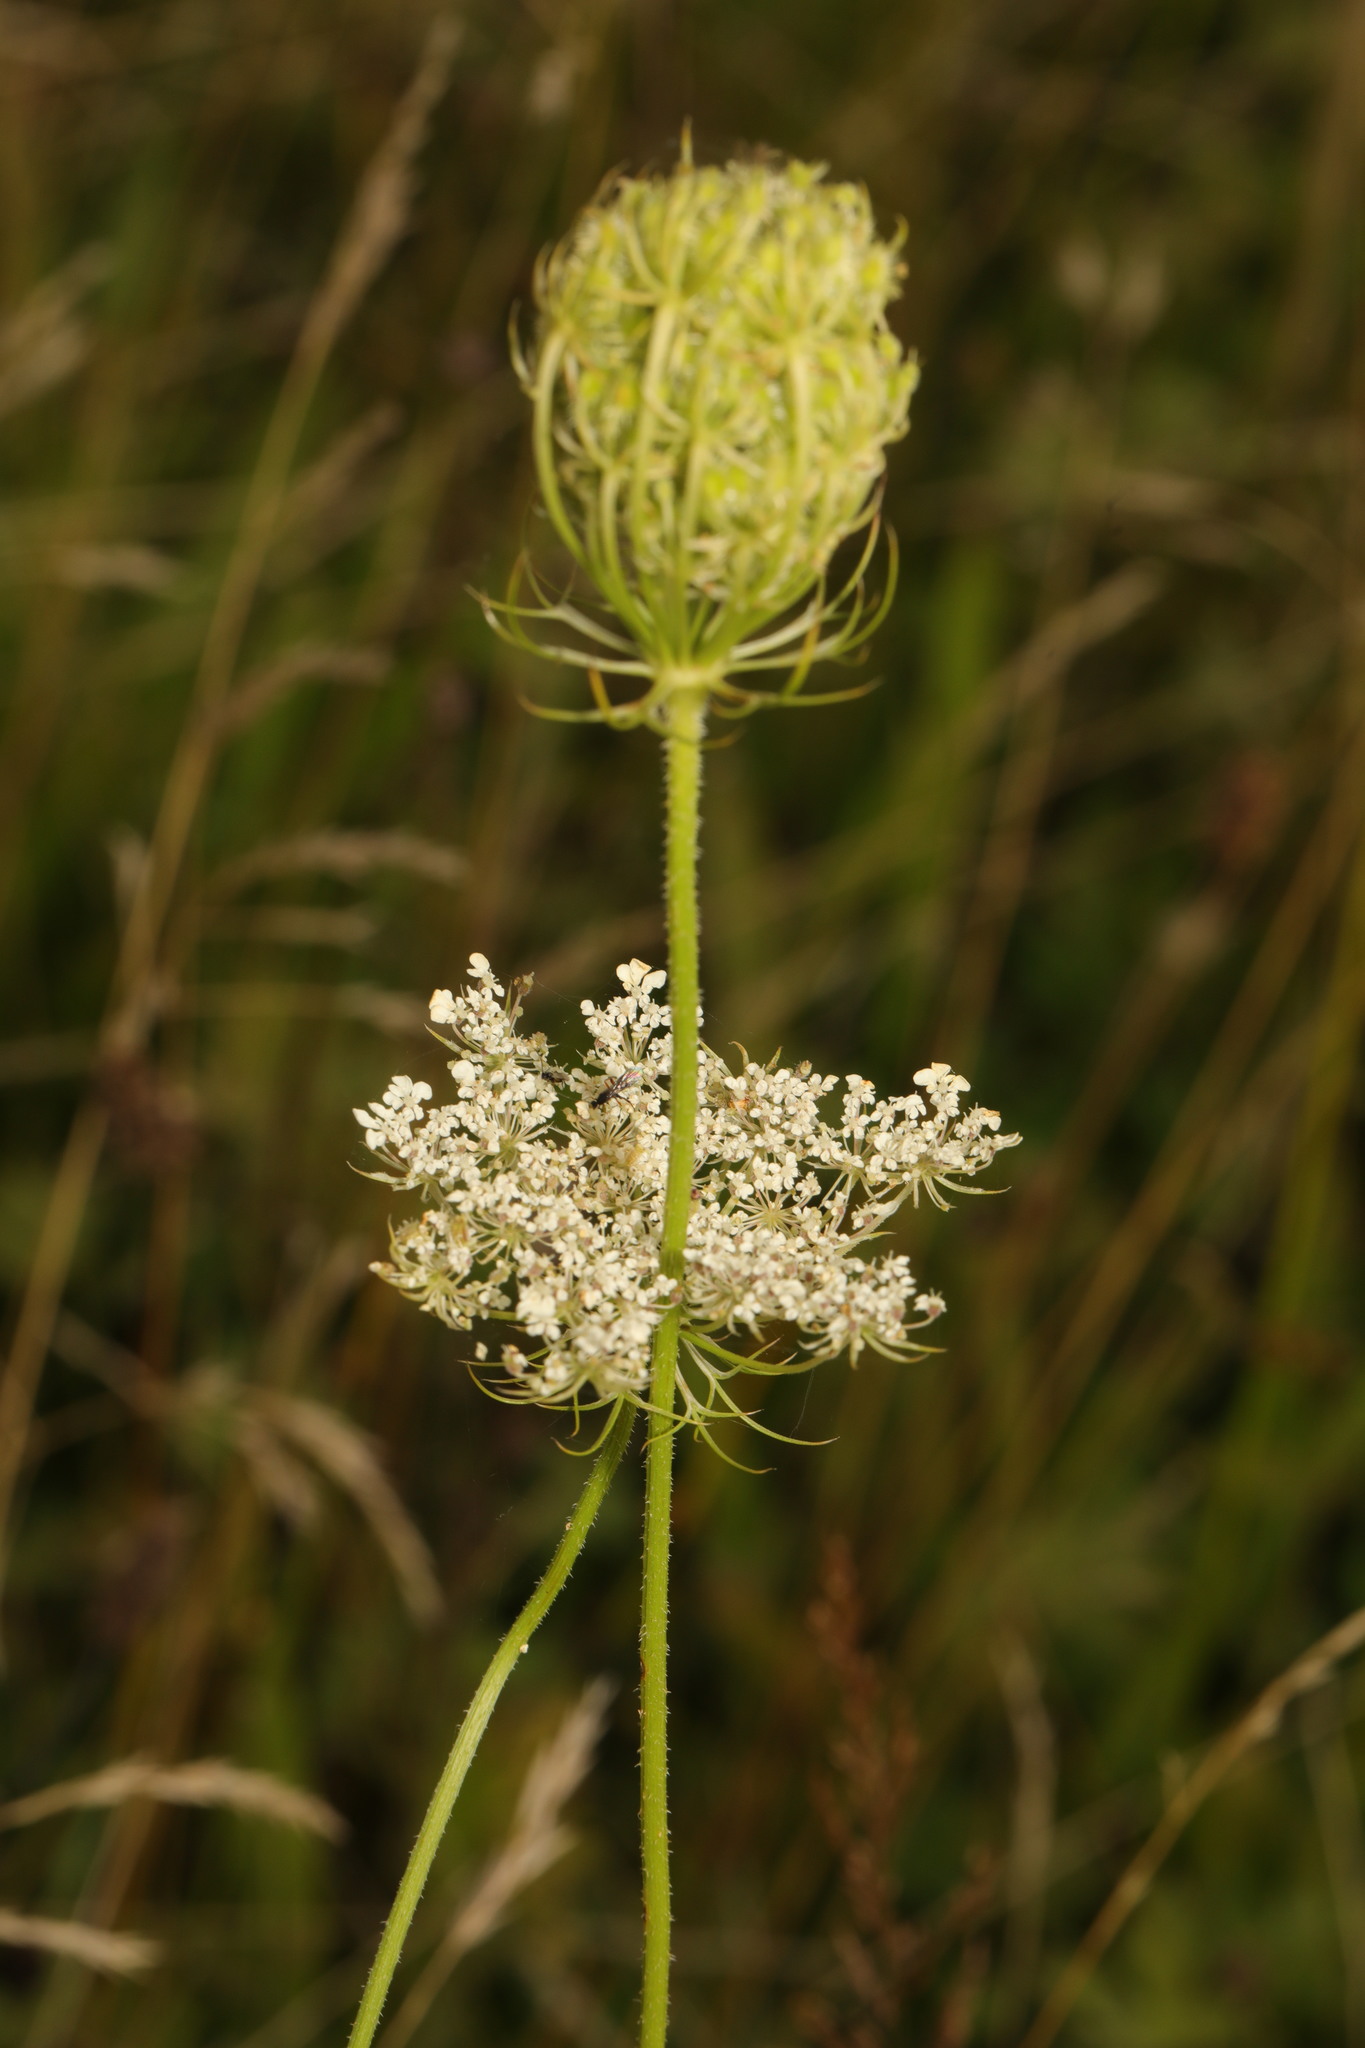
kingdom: Plantae
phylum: Tracheophyta
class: Magnoliopsida
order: Apiales
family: Apiaceae
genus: Daucus
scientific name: Daucus carota
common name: Wild carrot
